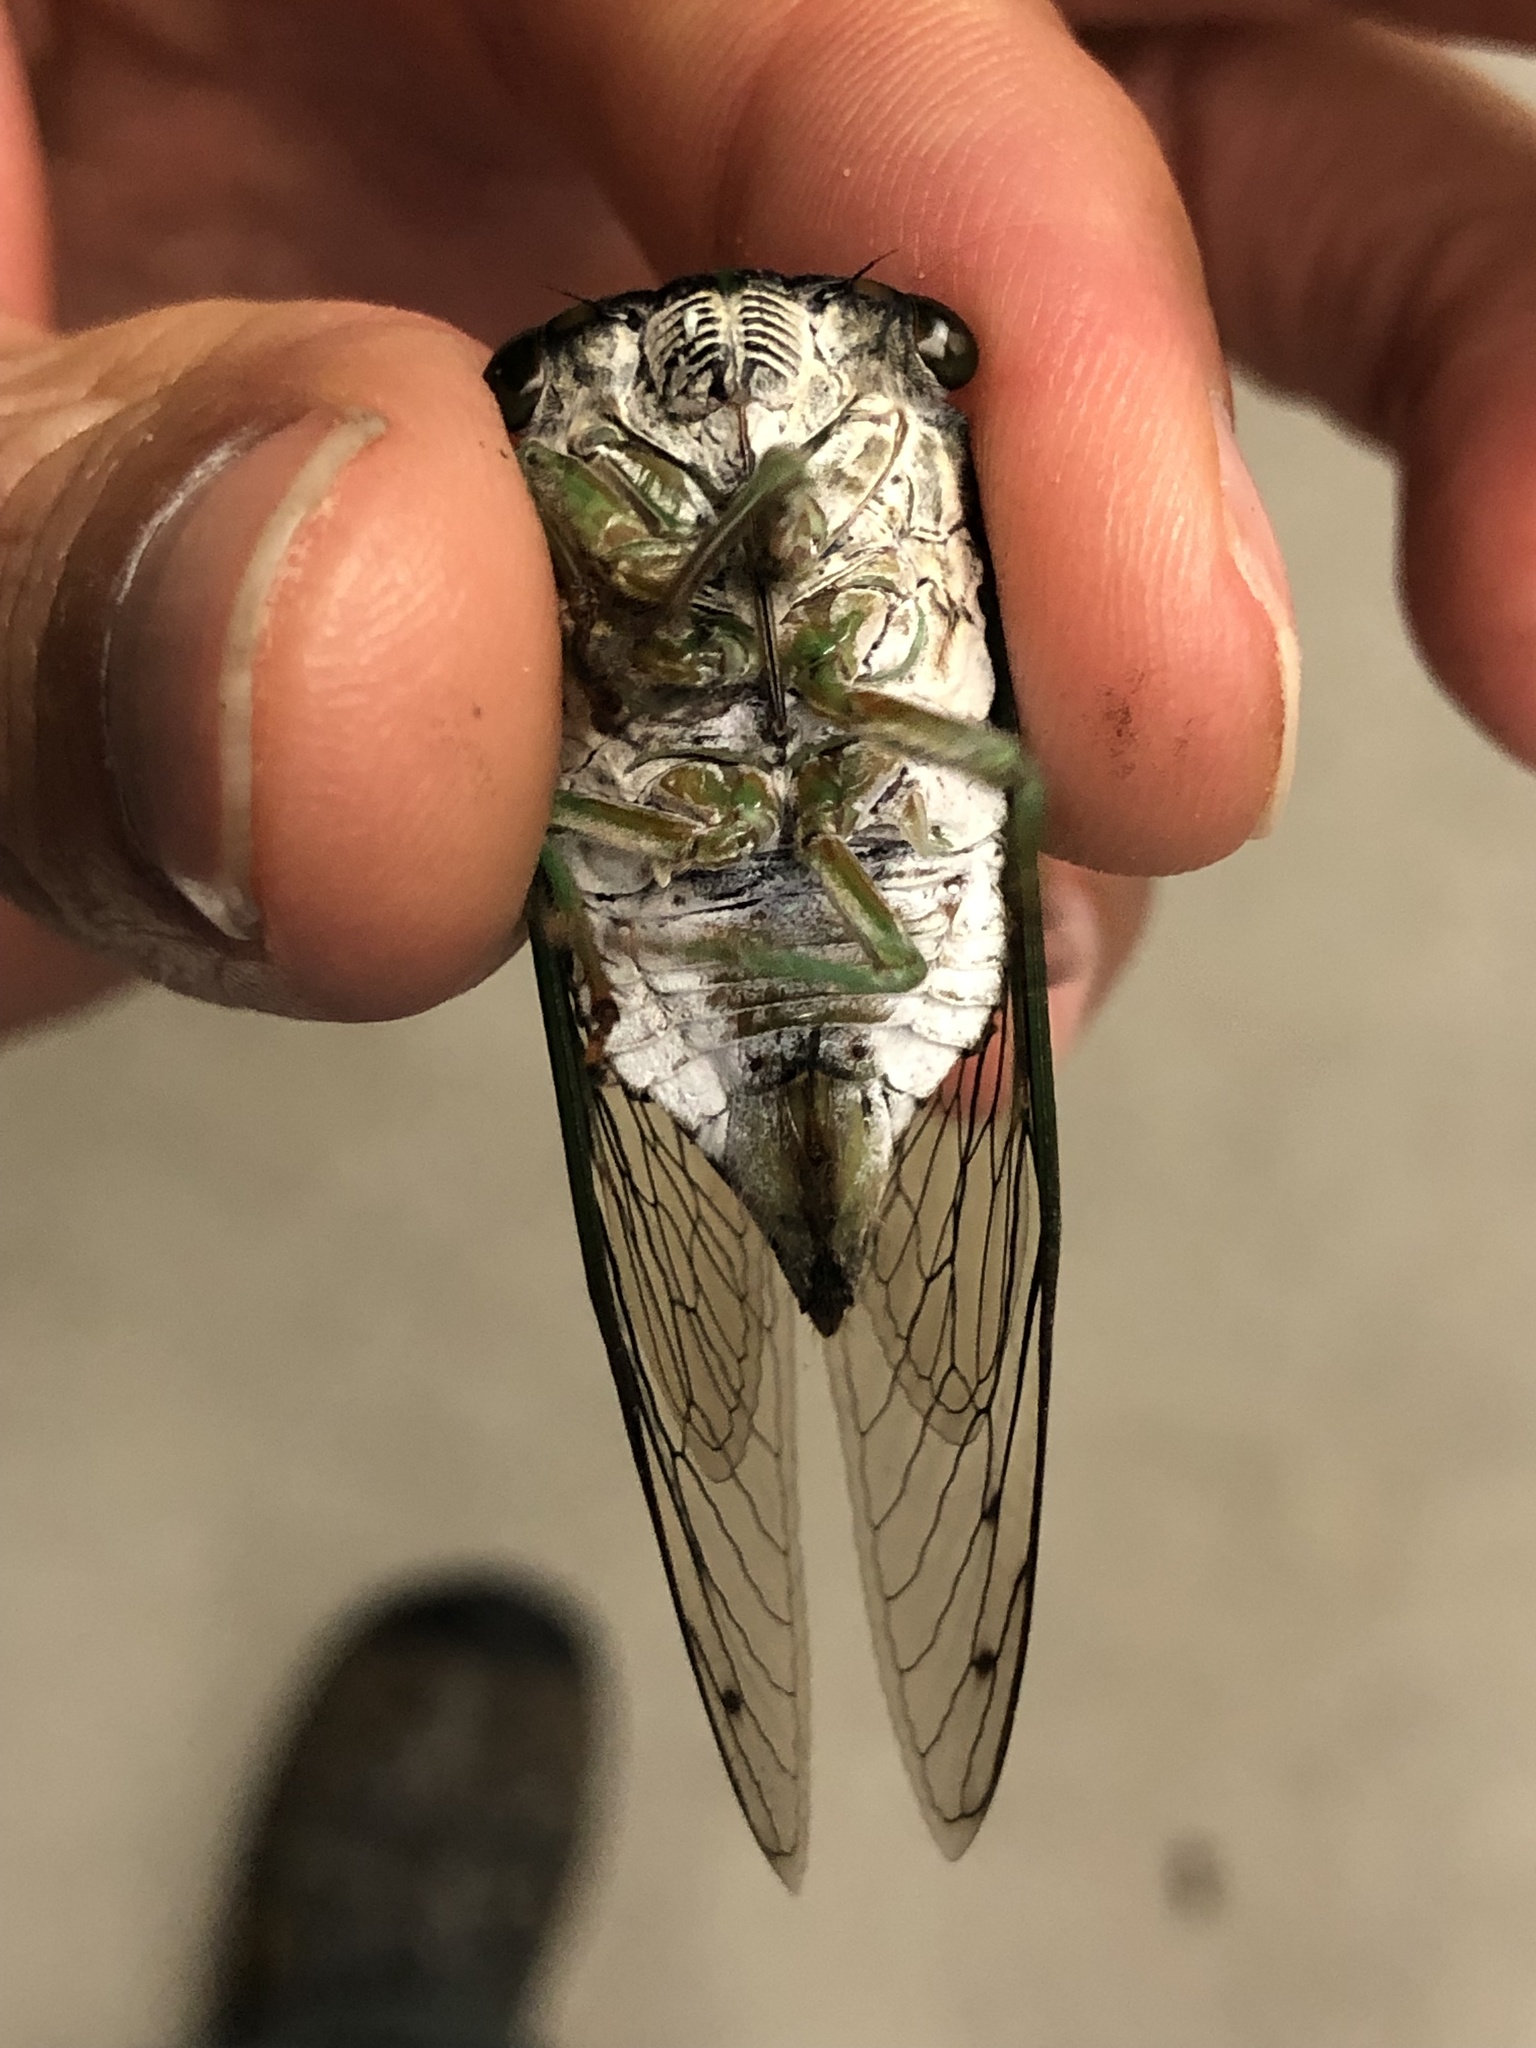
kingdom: Animalia
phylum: Arthropoda
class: Insecta
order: Hemiptera
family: Cicadidae
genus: Neotibicen
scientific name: Neotibicen tibicen
